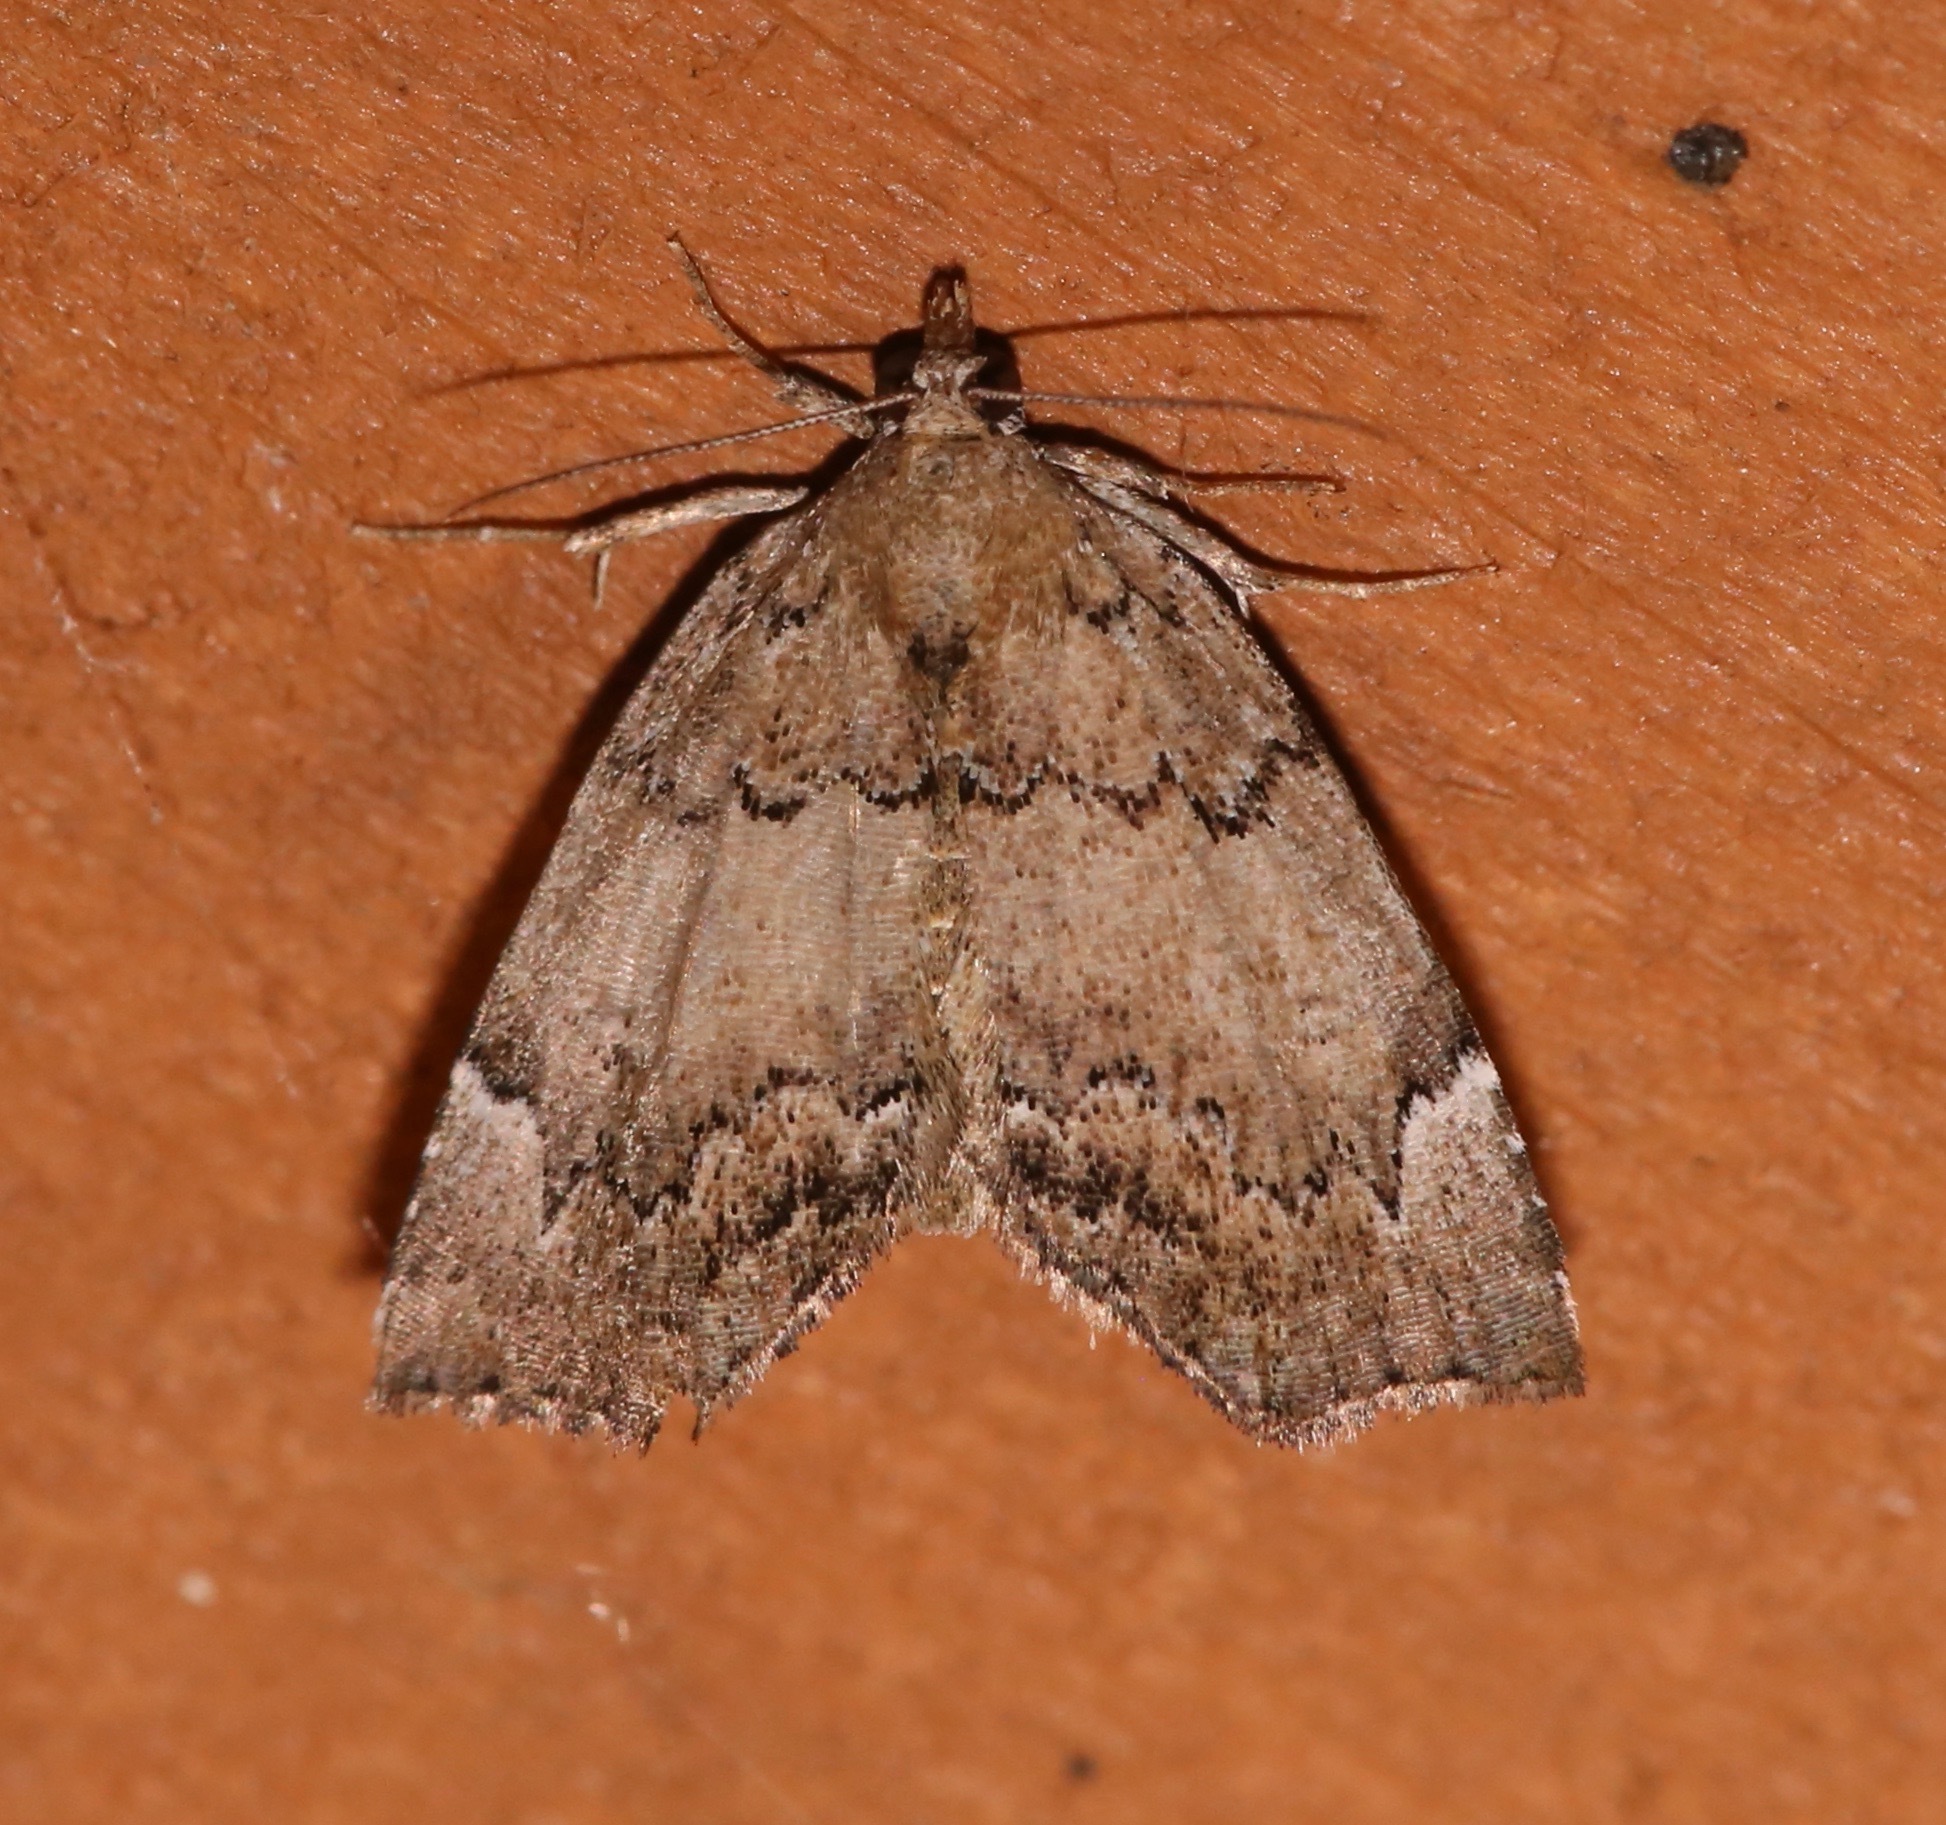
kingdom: Animalia
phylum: Arthropoda
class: Insecta
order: Lepidoptera
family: Erebidae
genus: Cutina
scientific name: Cutina aluticolor
